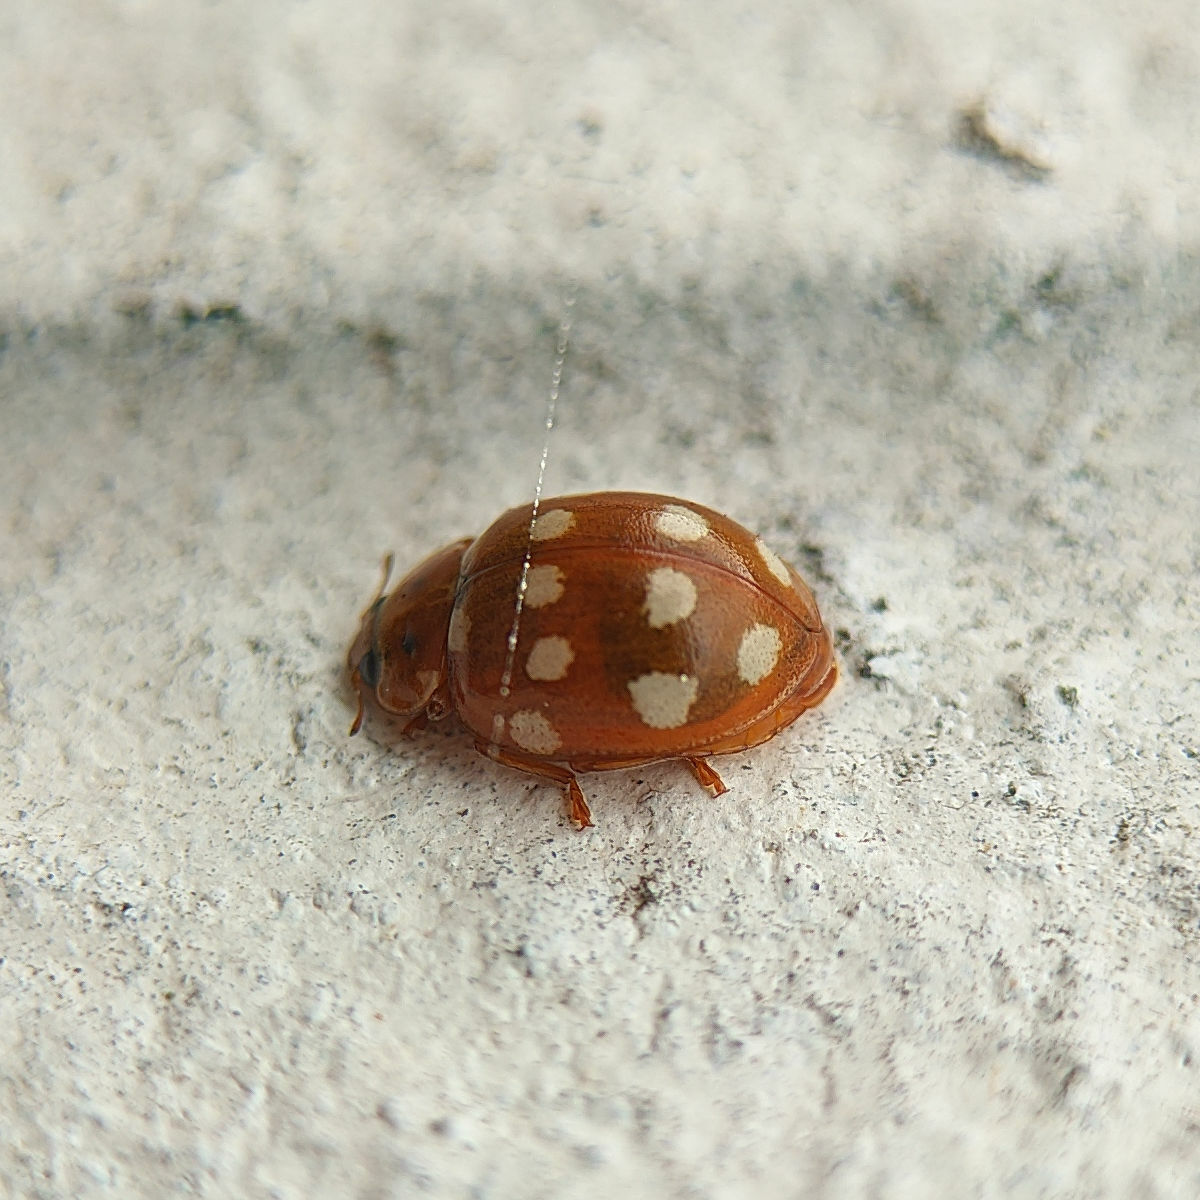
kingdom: Animalia
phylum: Arthropoda
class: Insecta
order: Coleoptera
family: Coccinellidae
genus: Calvia
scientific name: Calvia quatuordecimguttata
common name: Cream-spot ladybird
